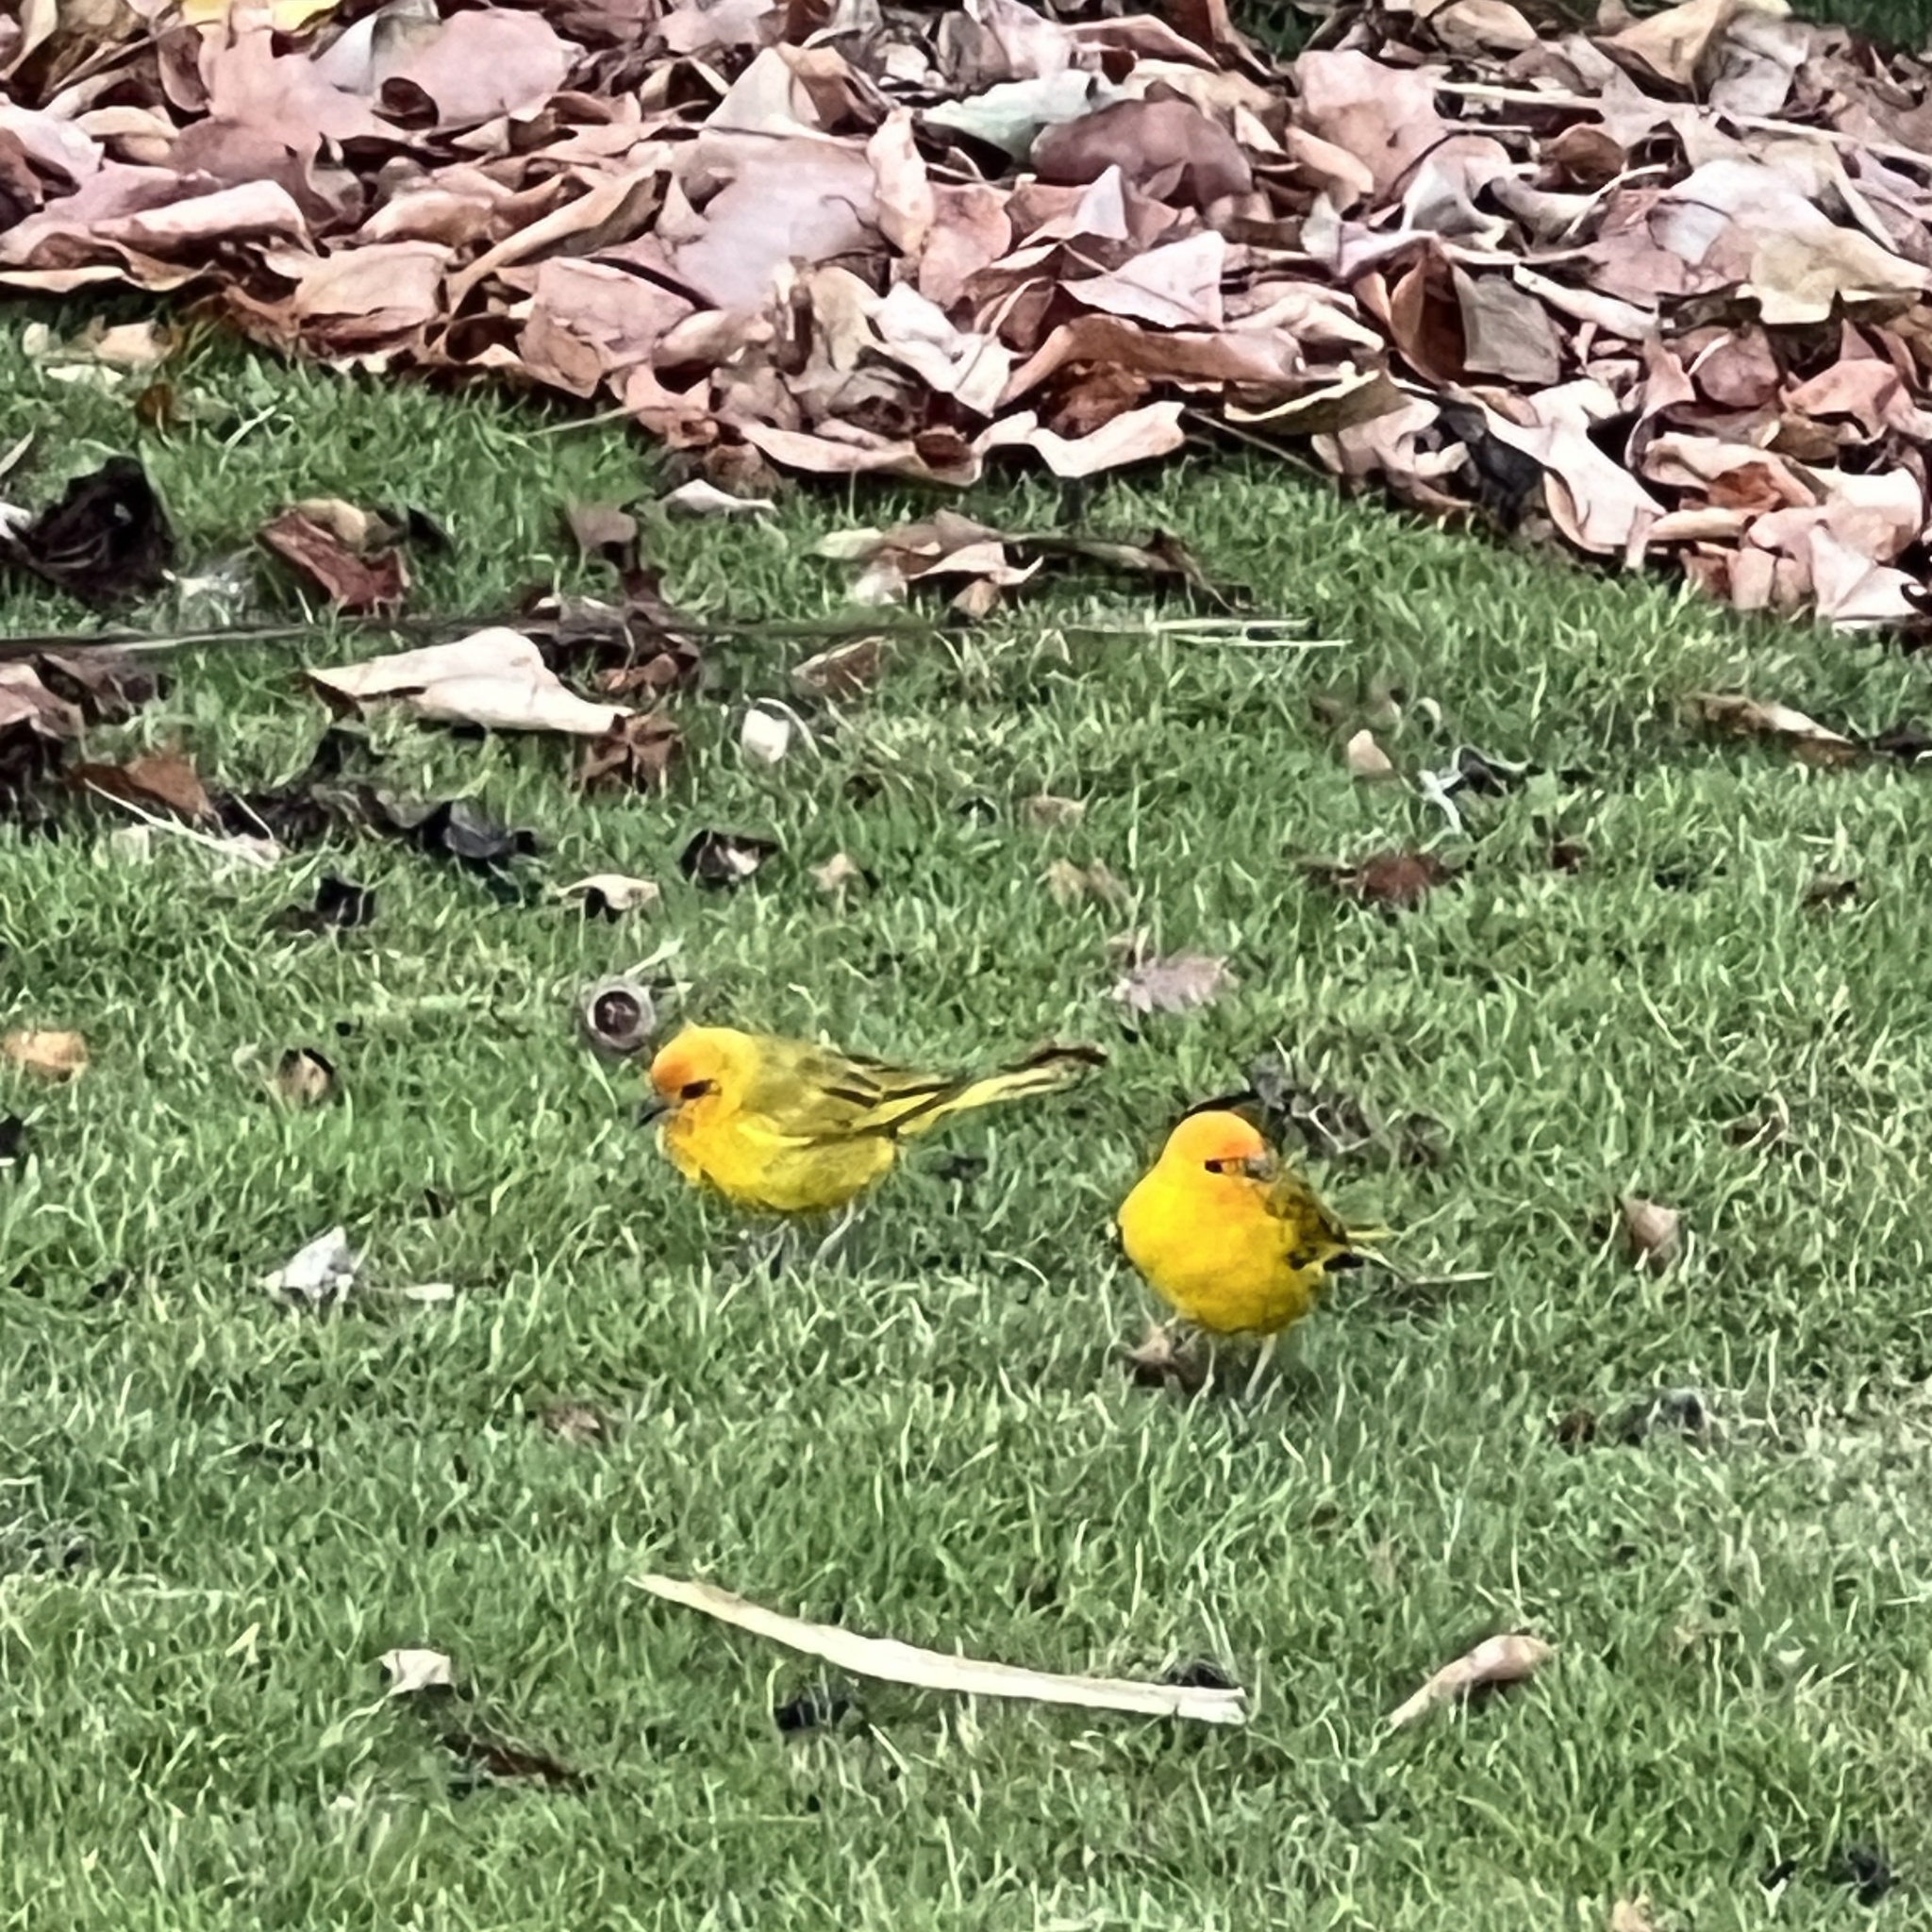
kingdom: Animalia
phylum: Chordata
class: Aves
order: Passeriformes
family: Thraupidae
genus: Sicalis
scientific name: Sicalis flaveola
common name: Saffron finch
